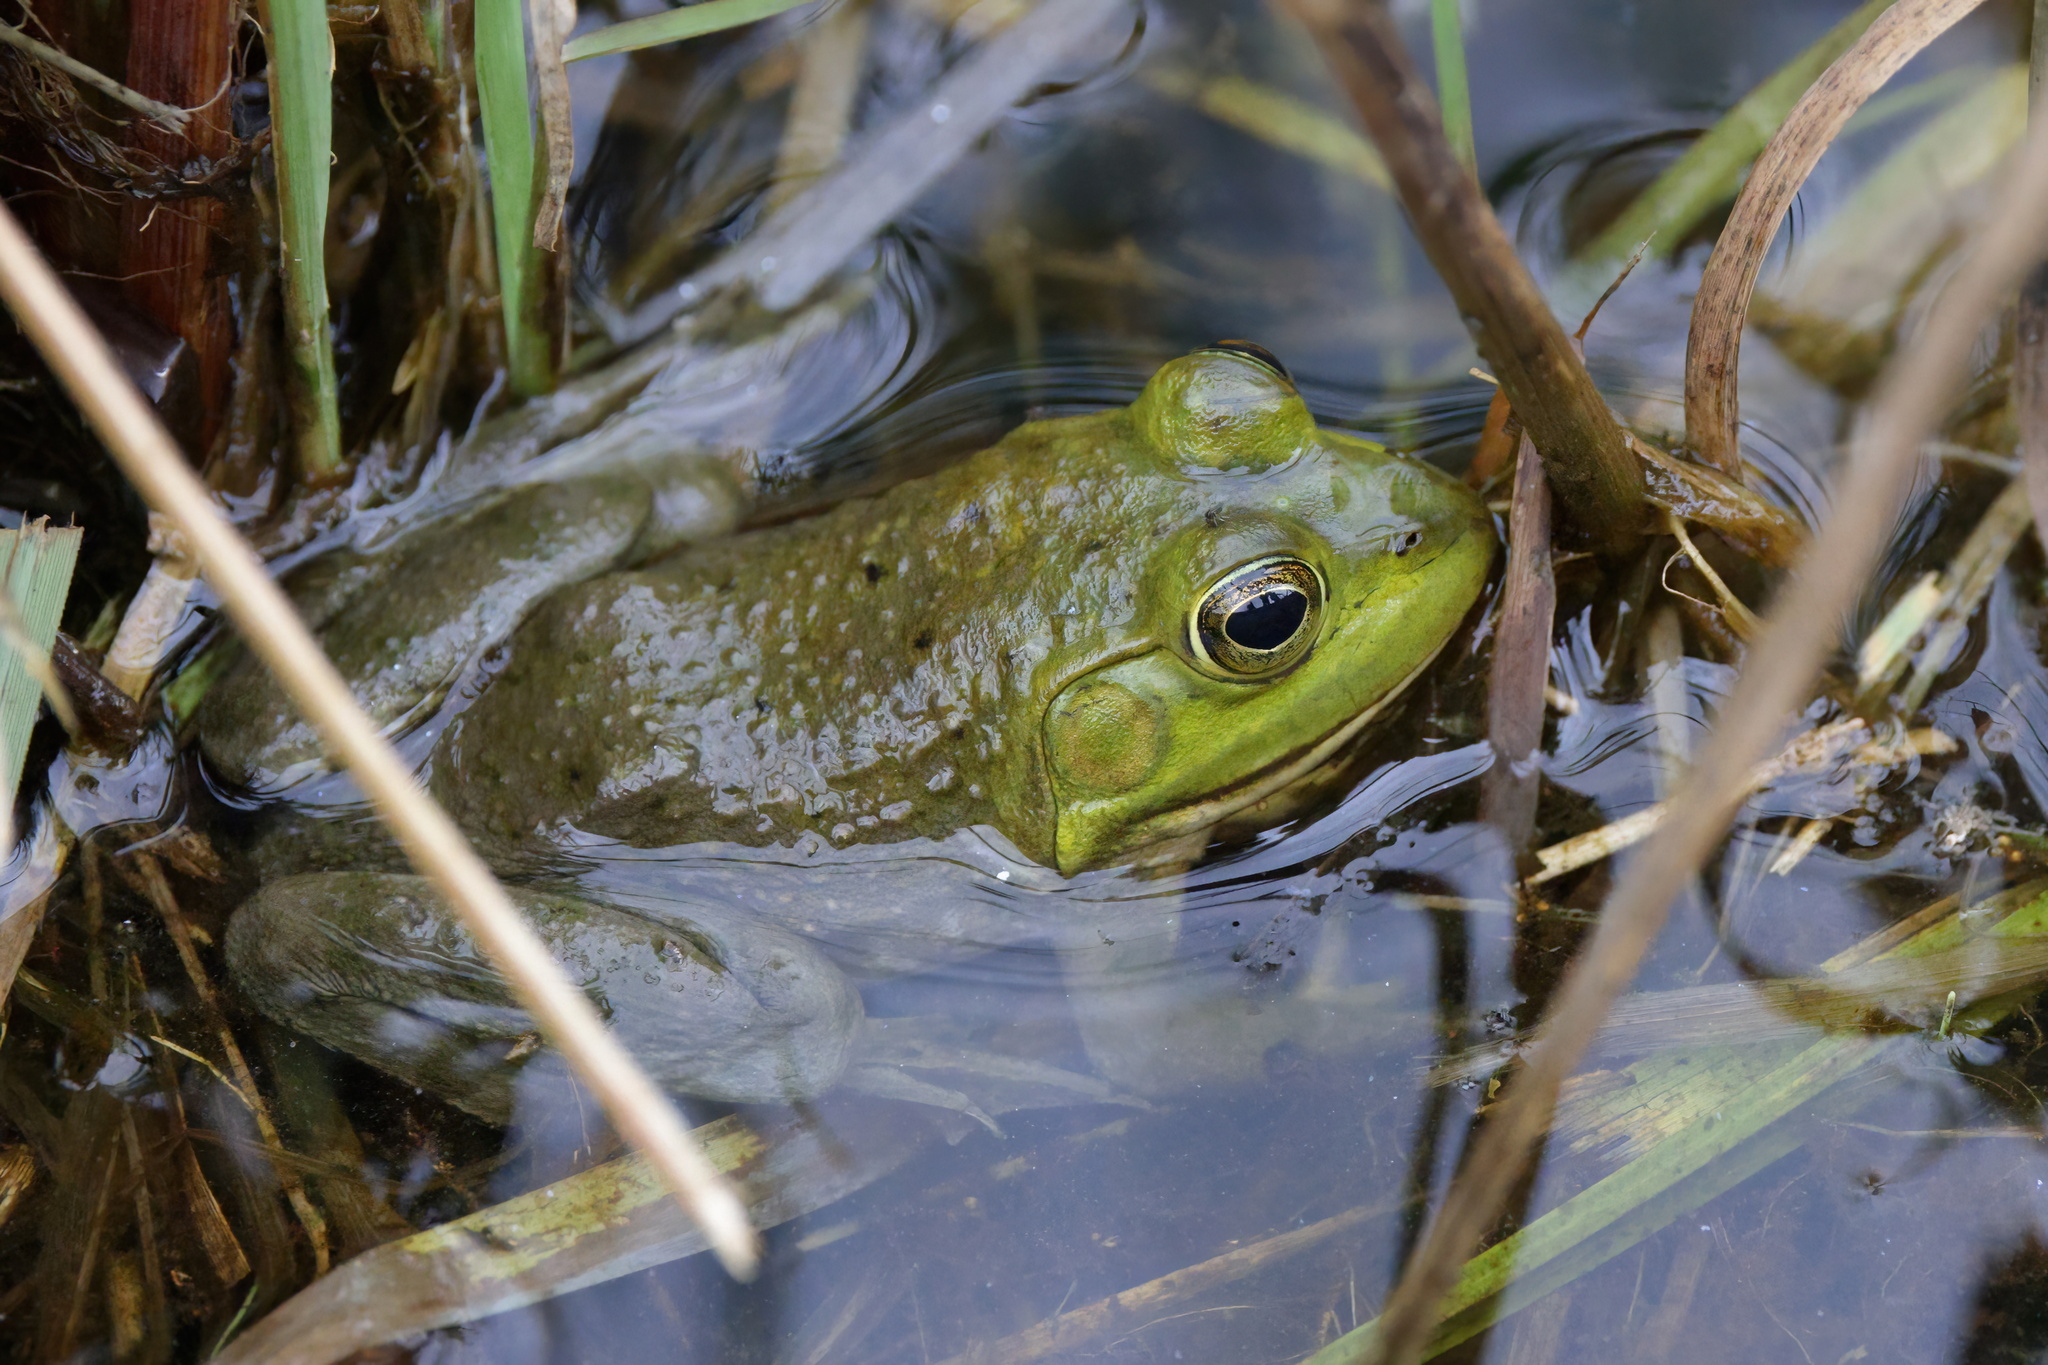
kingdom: Animalia
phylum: Chordata
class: Amphibia
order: Anura
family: Ranidae
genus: Lithobates
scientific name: Lithobates catesbeianus
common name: American bullfrog
